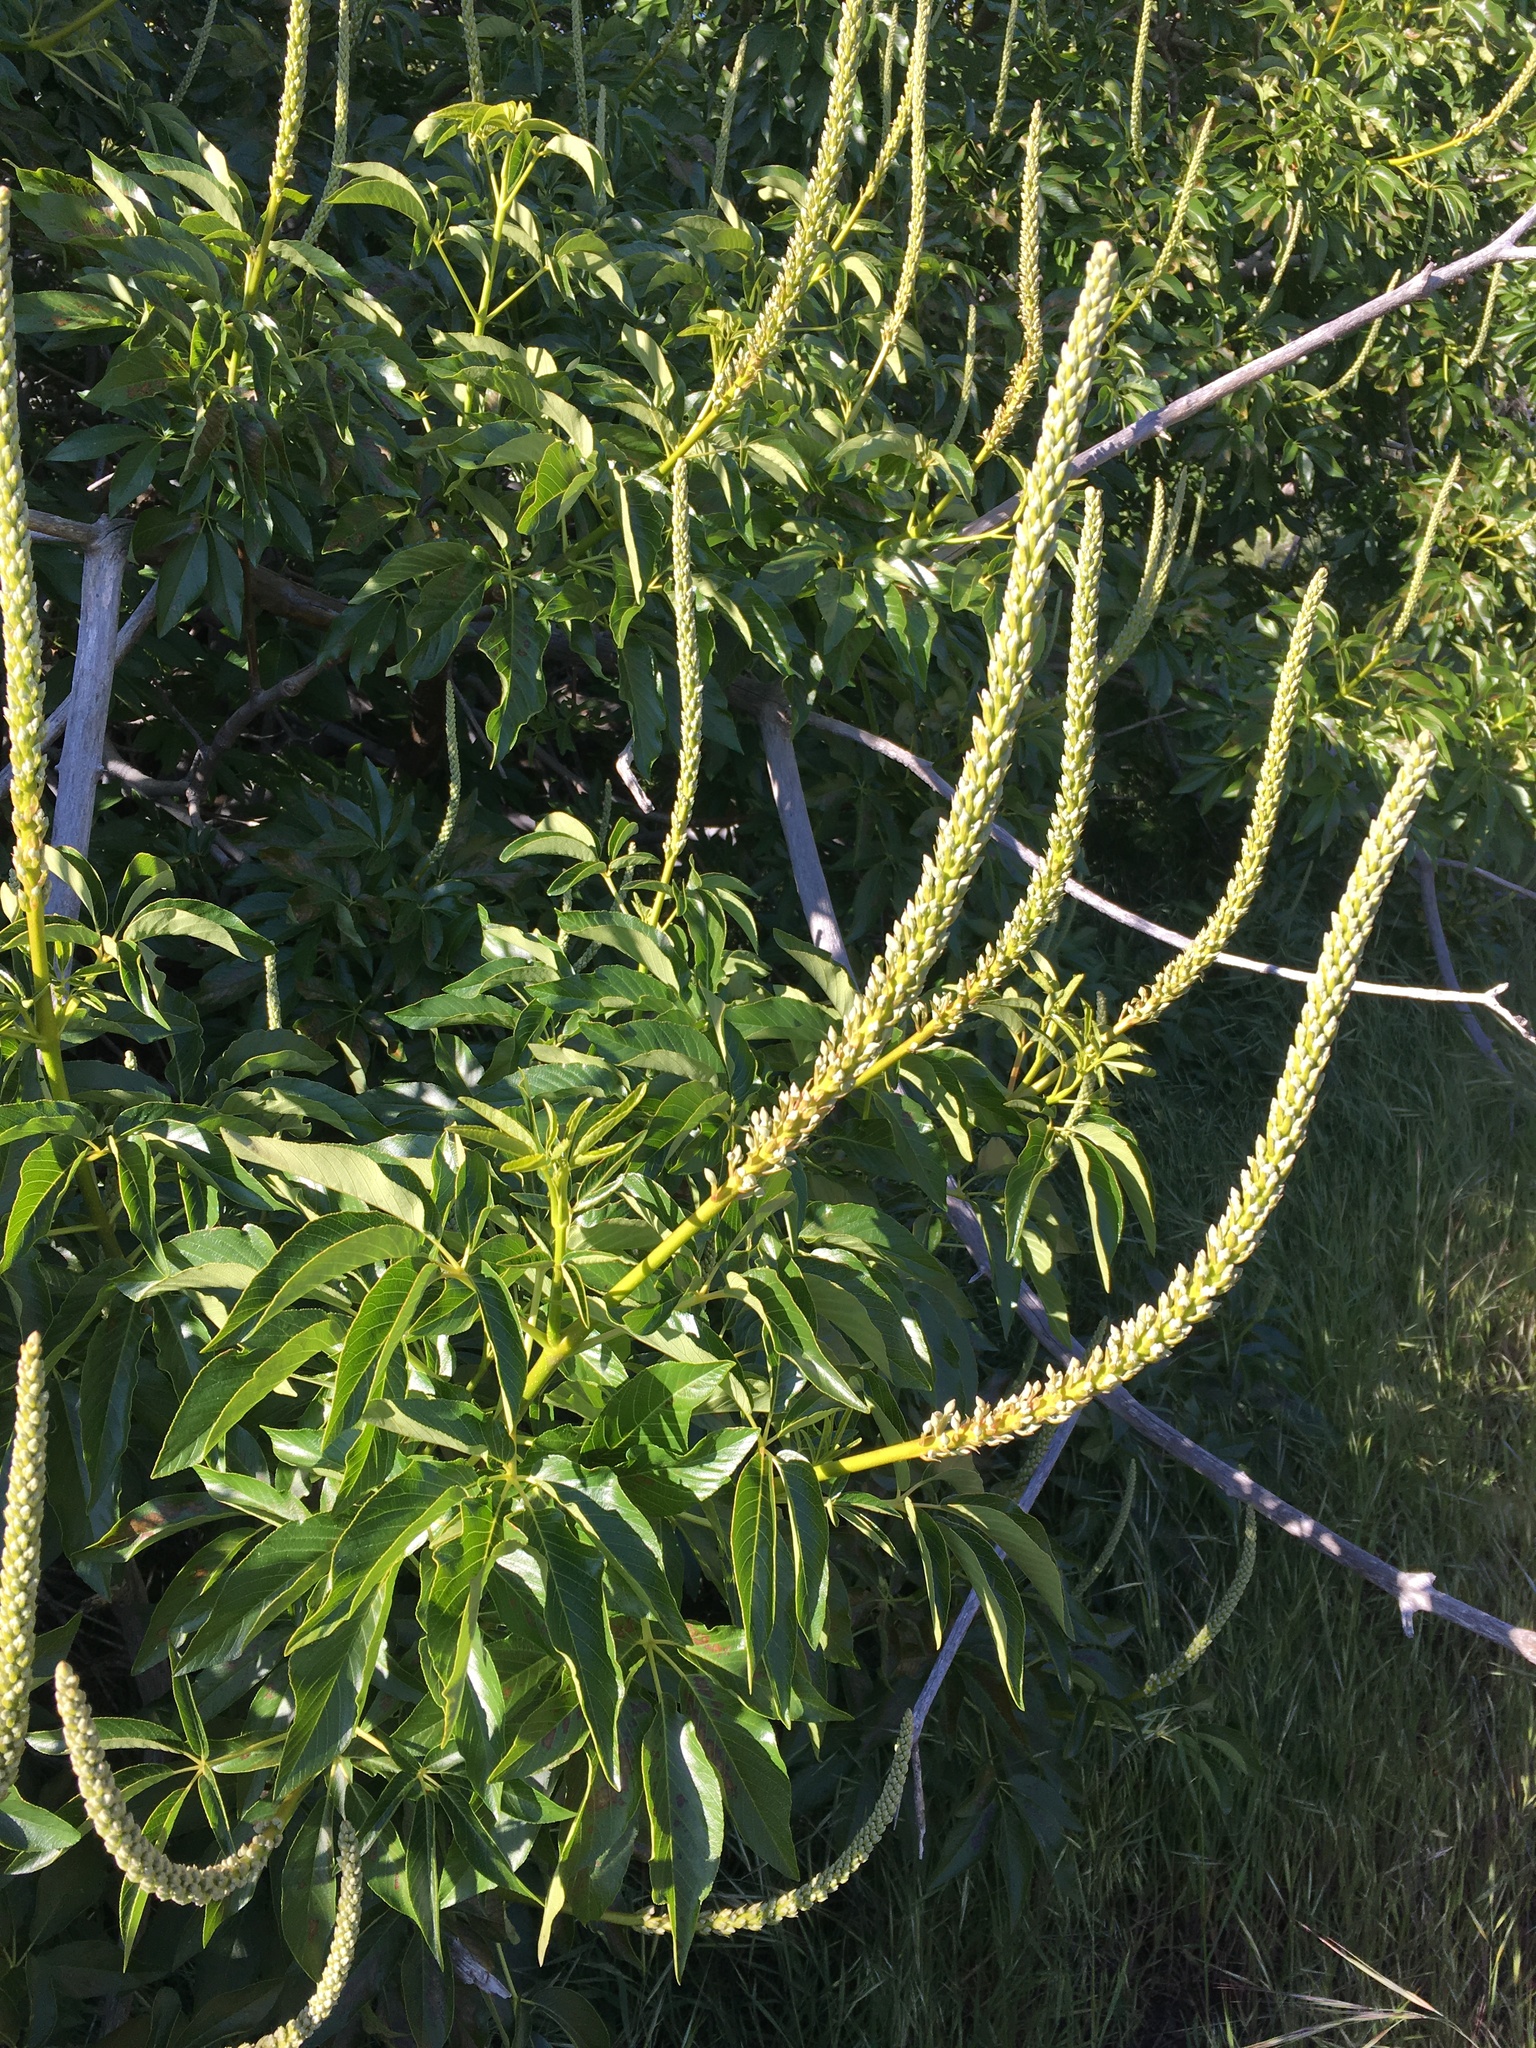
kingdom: Plantae
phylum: Tracheophyta
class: Magnoliopsida
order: Sapindales
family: Sapindaceae
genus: Aesculus
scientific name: Aesculus californica
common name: California buckeye
